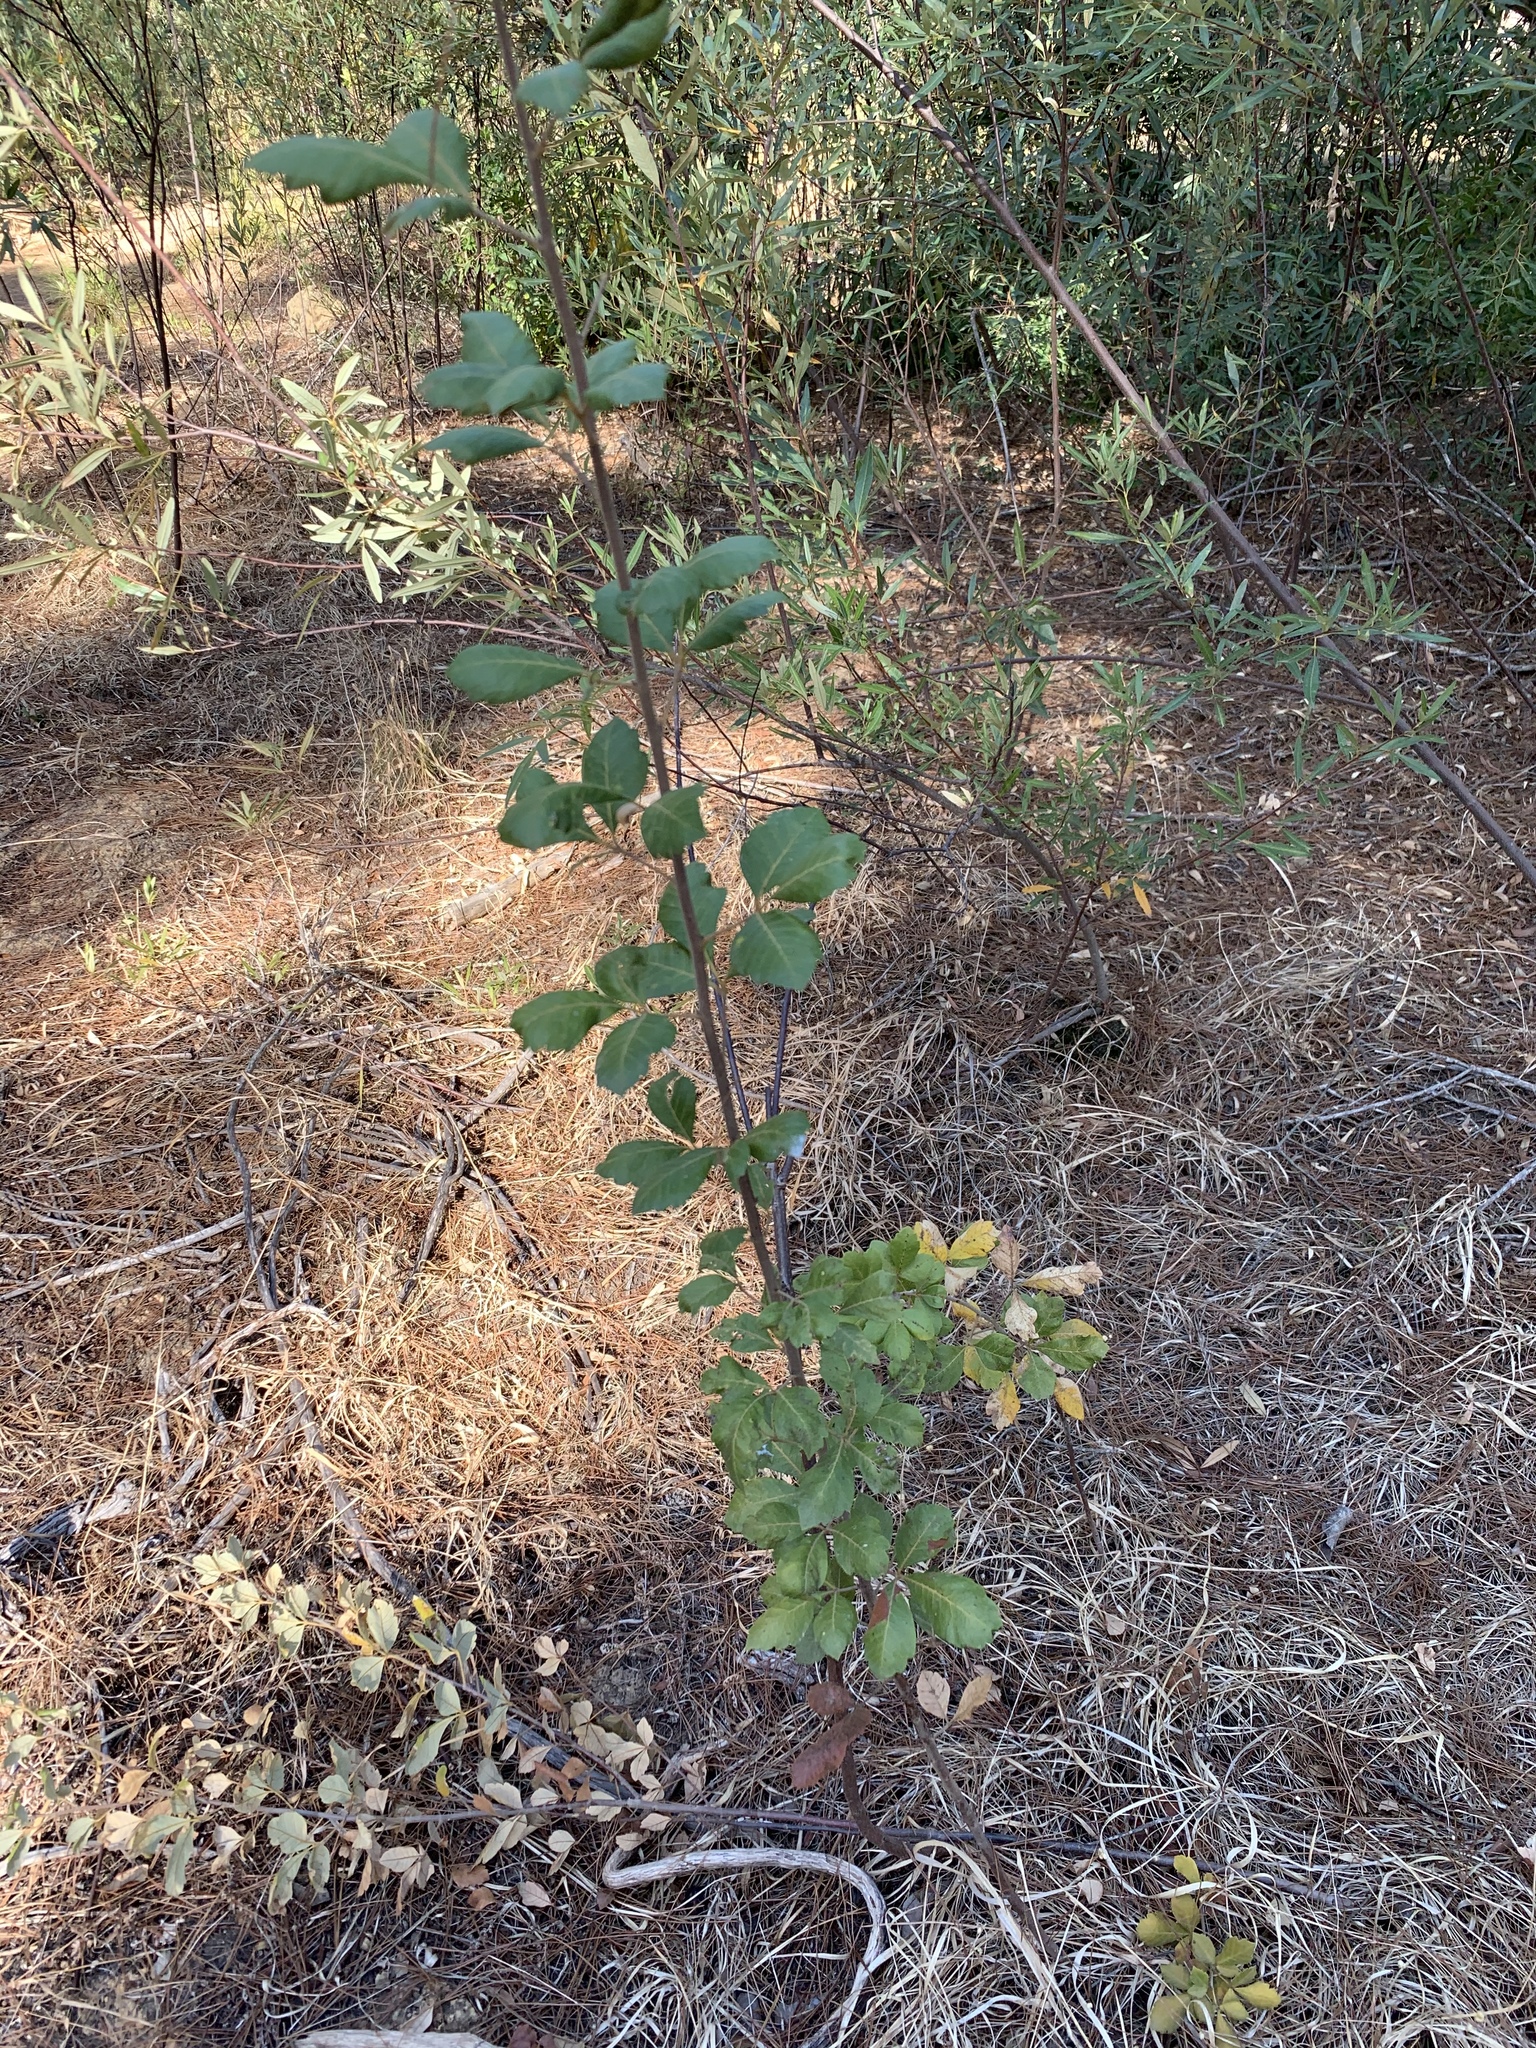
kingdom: Plantae
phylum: Tracheophyta
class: Magnoliopsida
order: Sapindales
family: Anacardiaceae
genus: Searsia
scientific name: Searsia tomentosa
